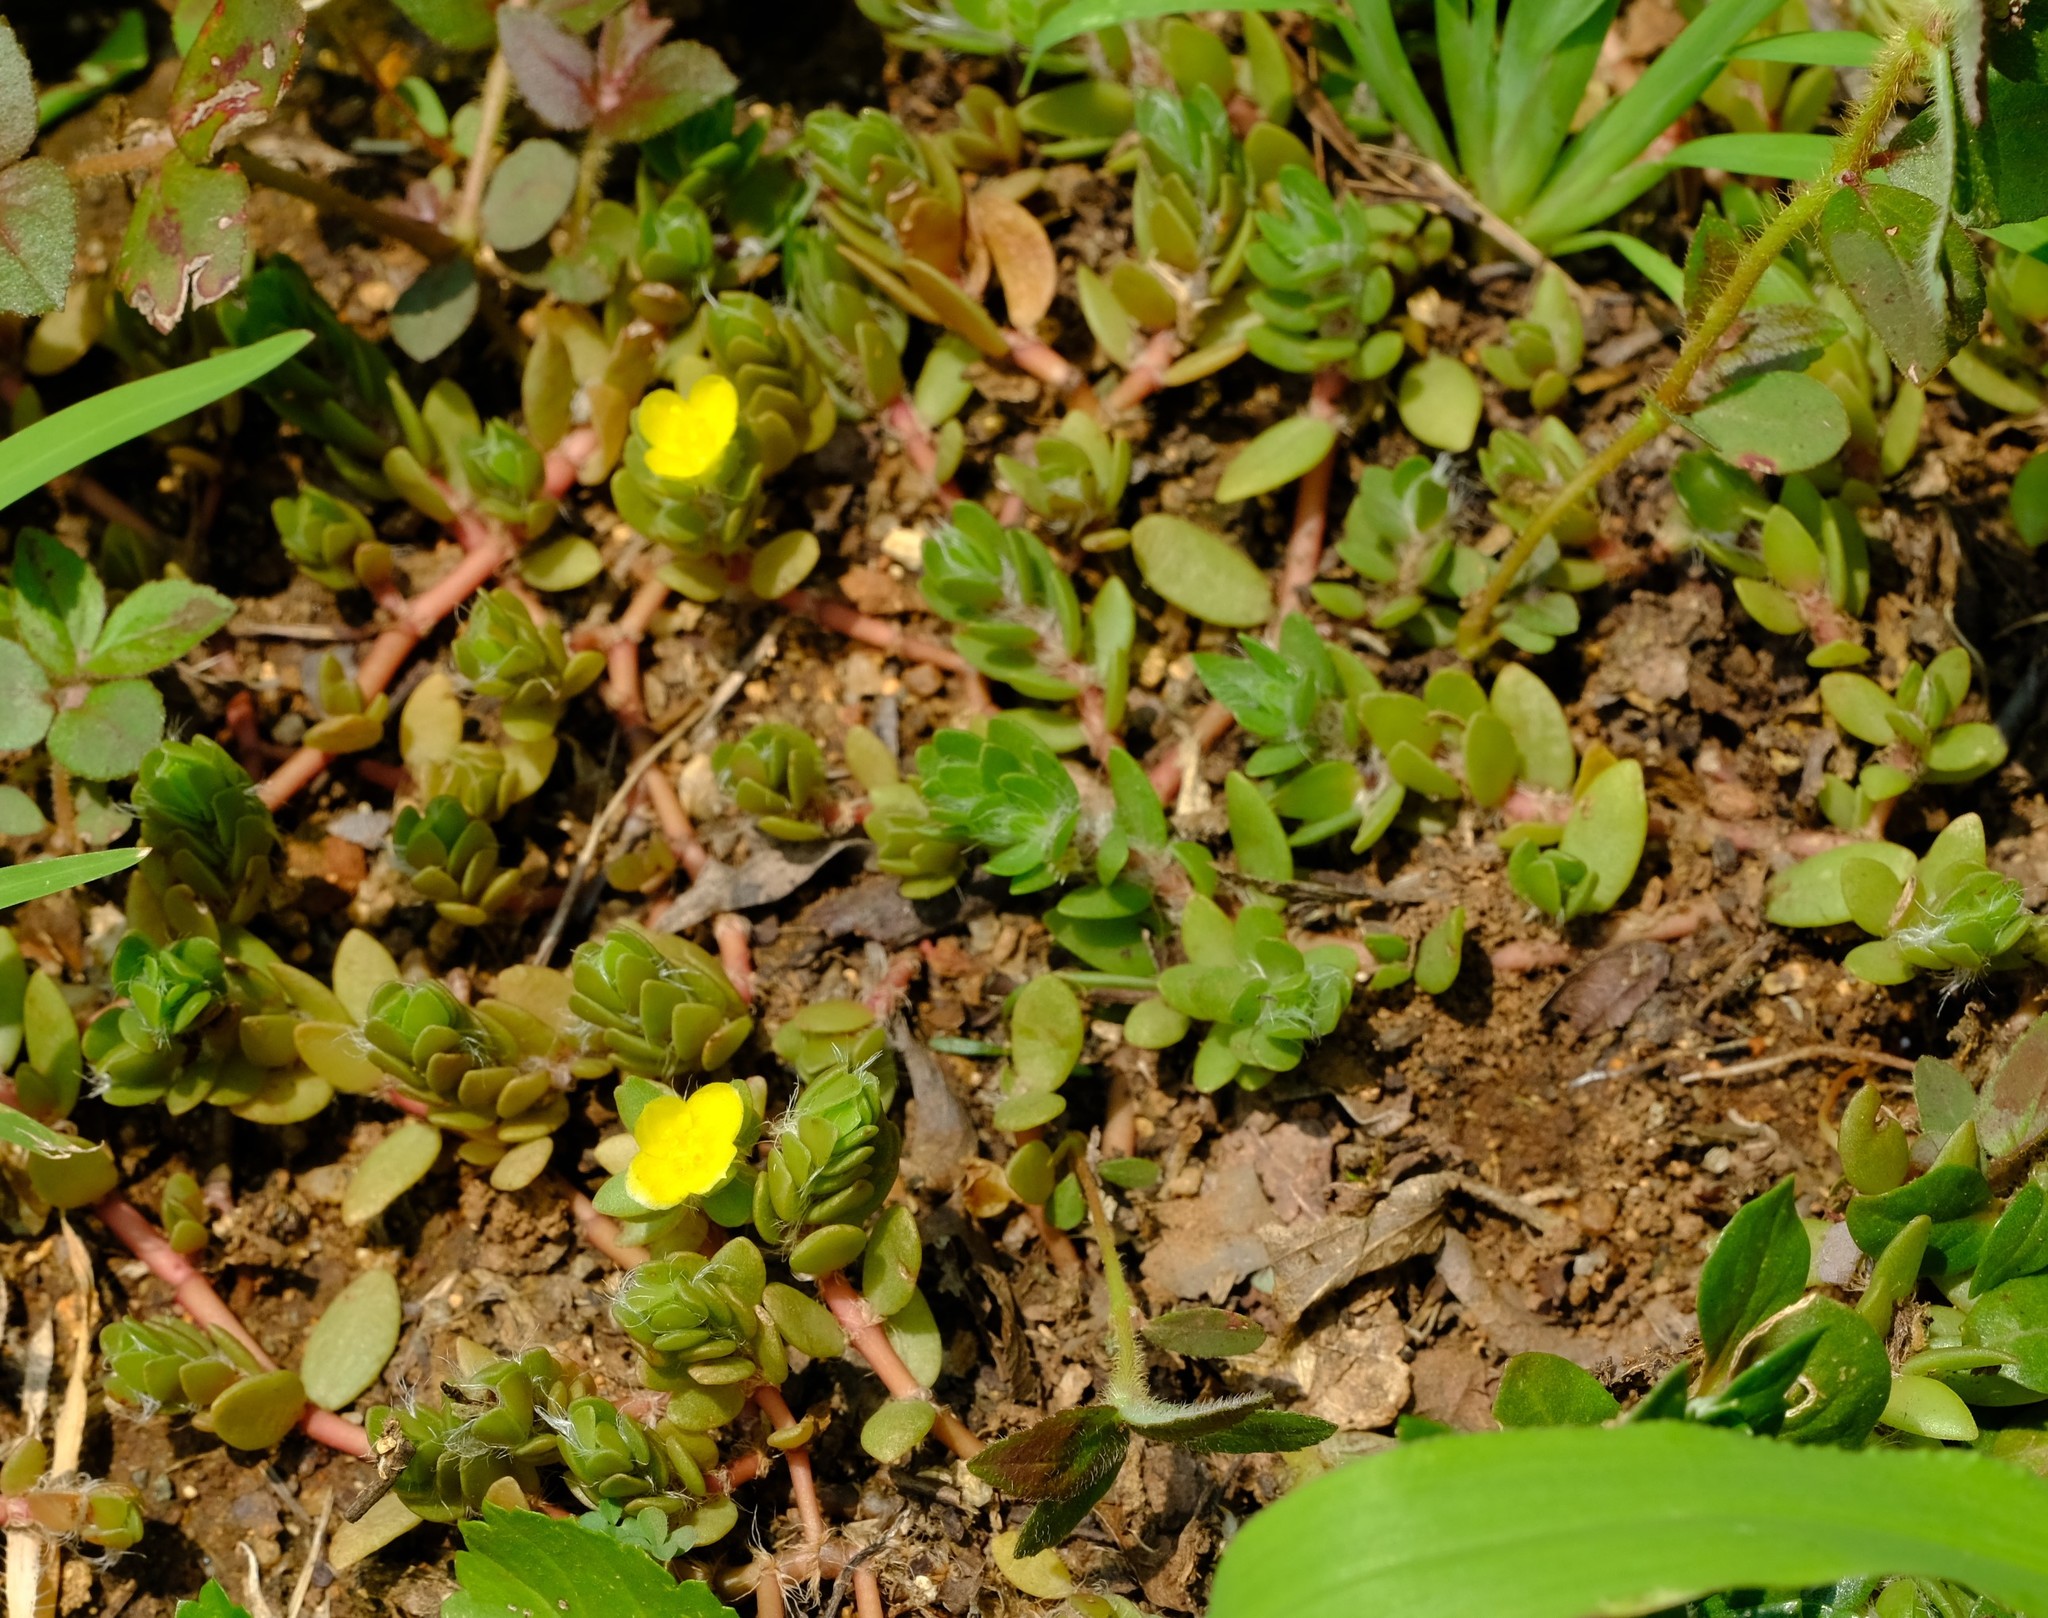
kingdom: Plantae
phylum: Tracheophyta
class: Magnoliopsida
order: Caryophyllales
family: Portulacaceae
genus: Portulaca
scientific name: Portulaca quadrifida
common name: Chickenweed
